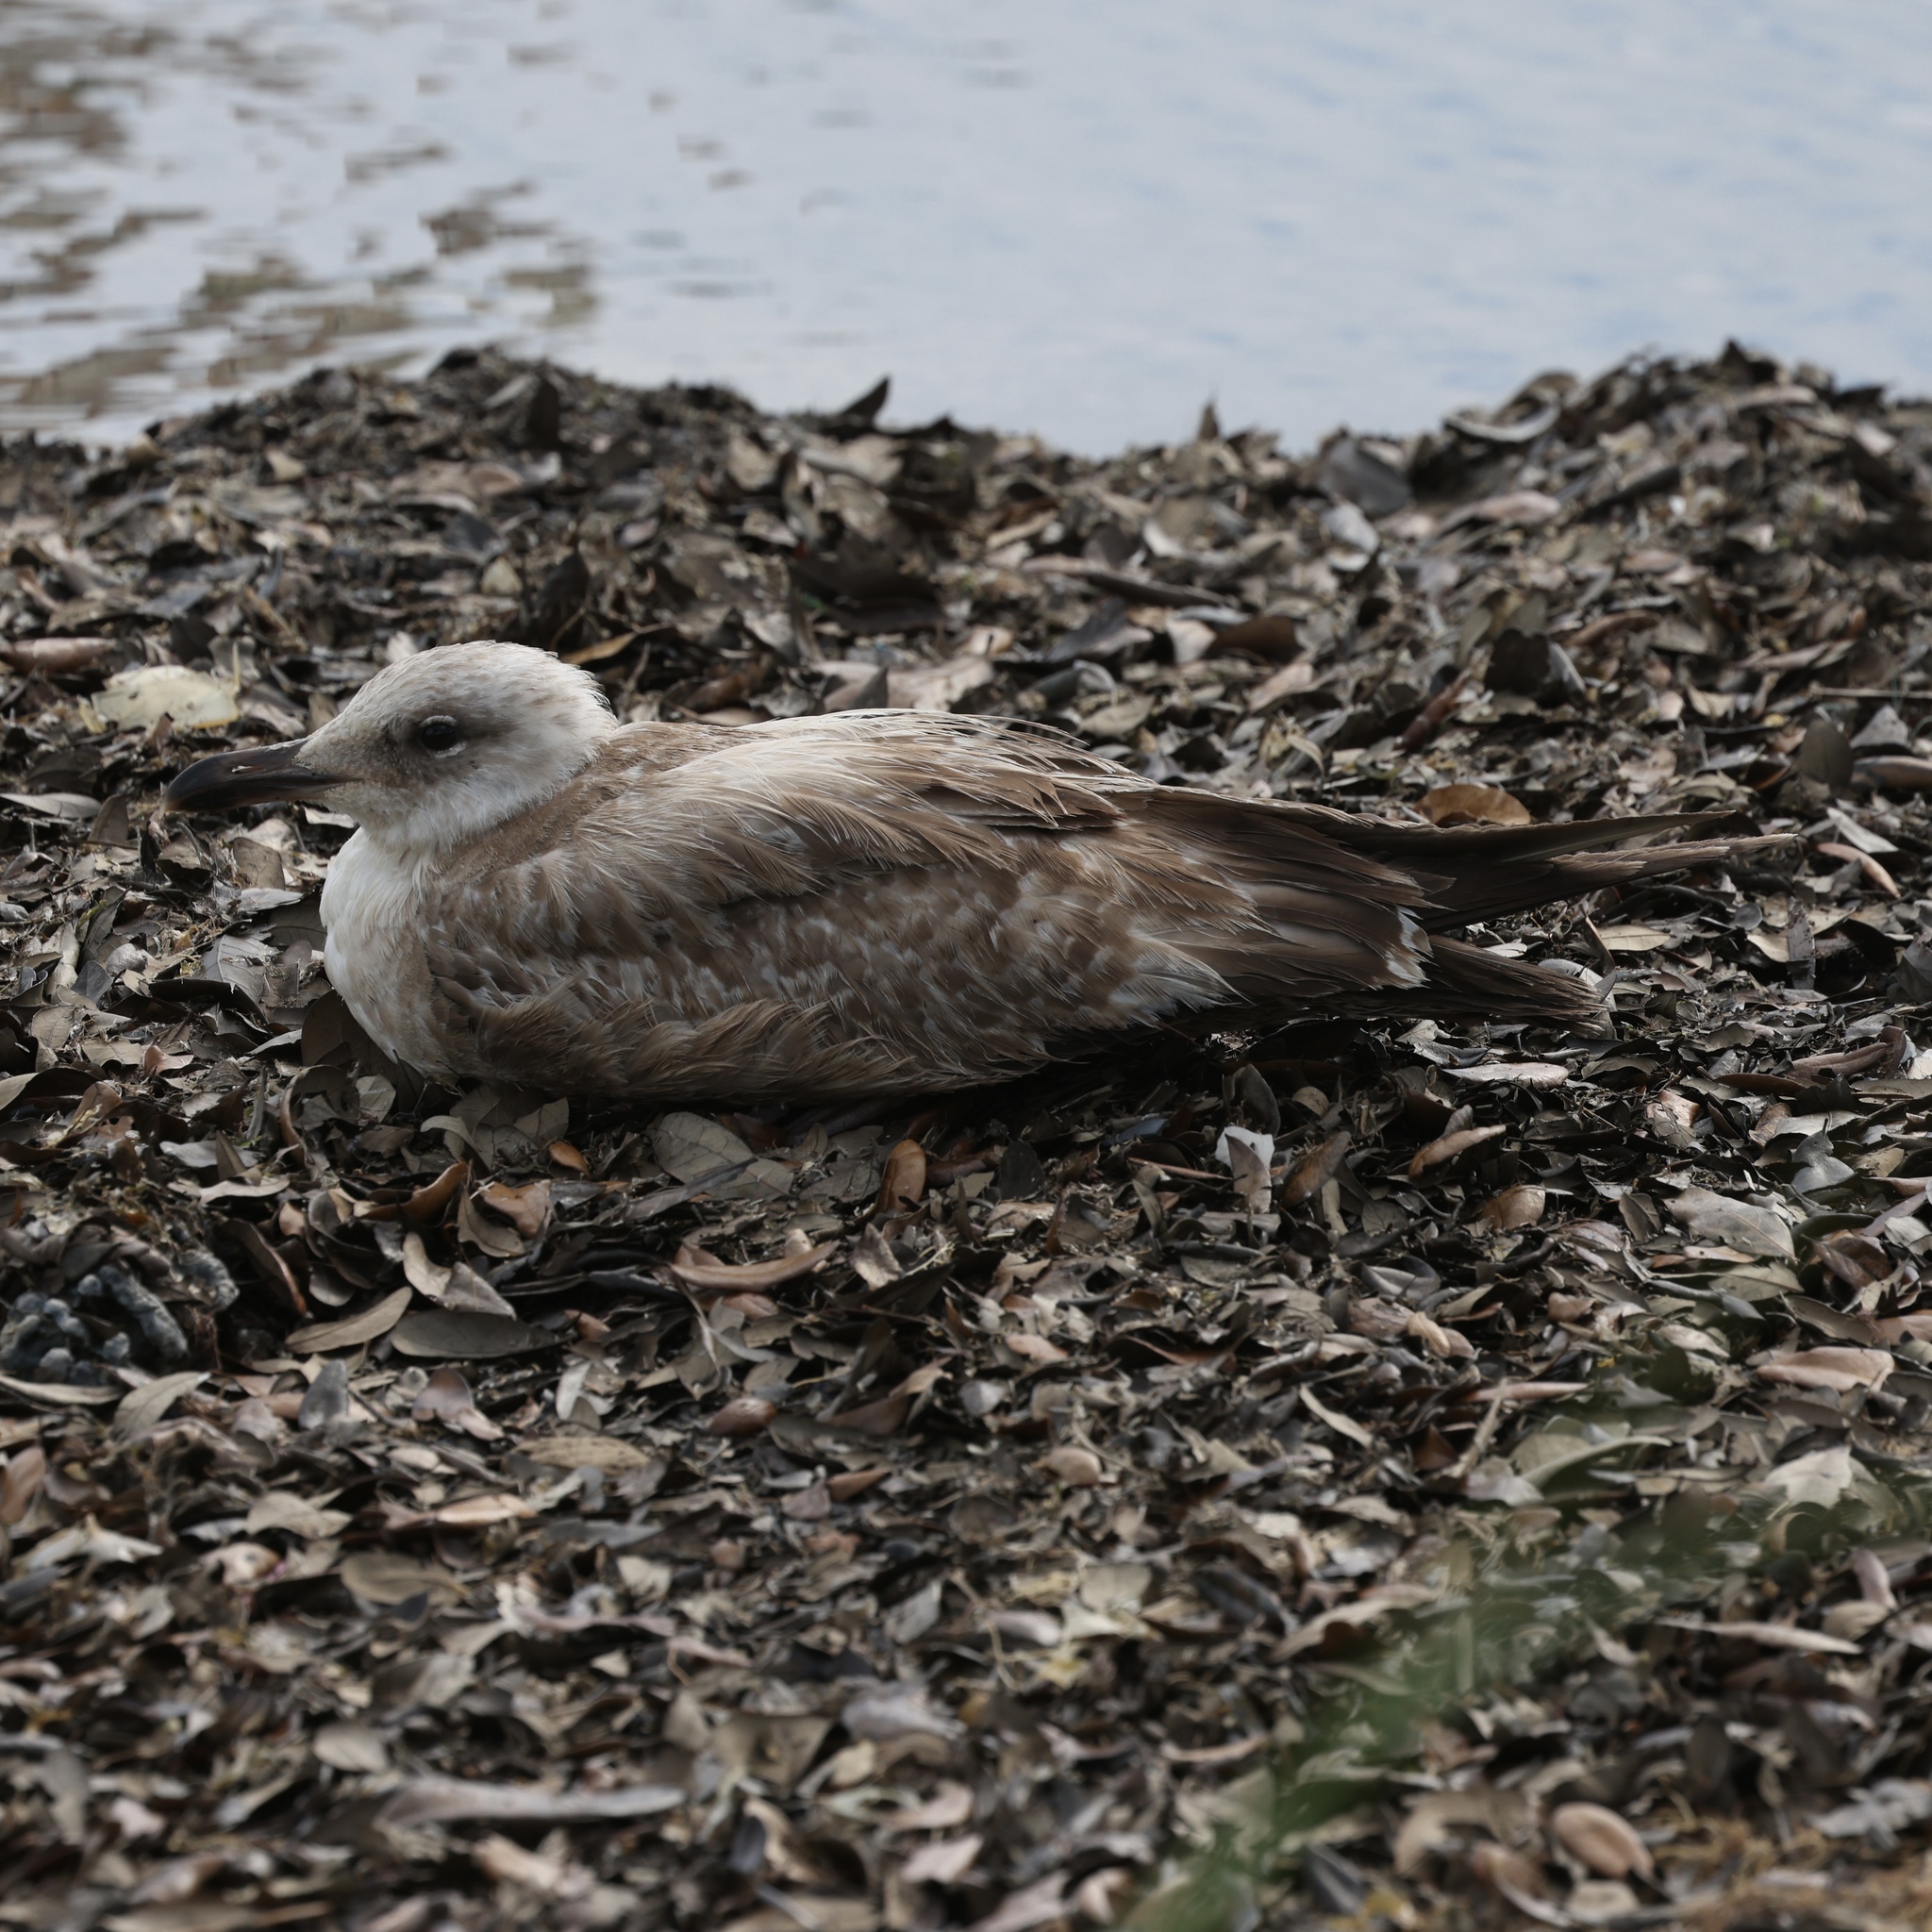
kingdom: Animalia
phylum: Chordata
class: Aves
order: Charadriiformes
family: Laridae
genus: Larus
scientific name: Larus fuscus
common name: Lesser black-backed gull
